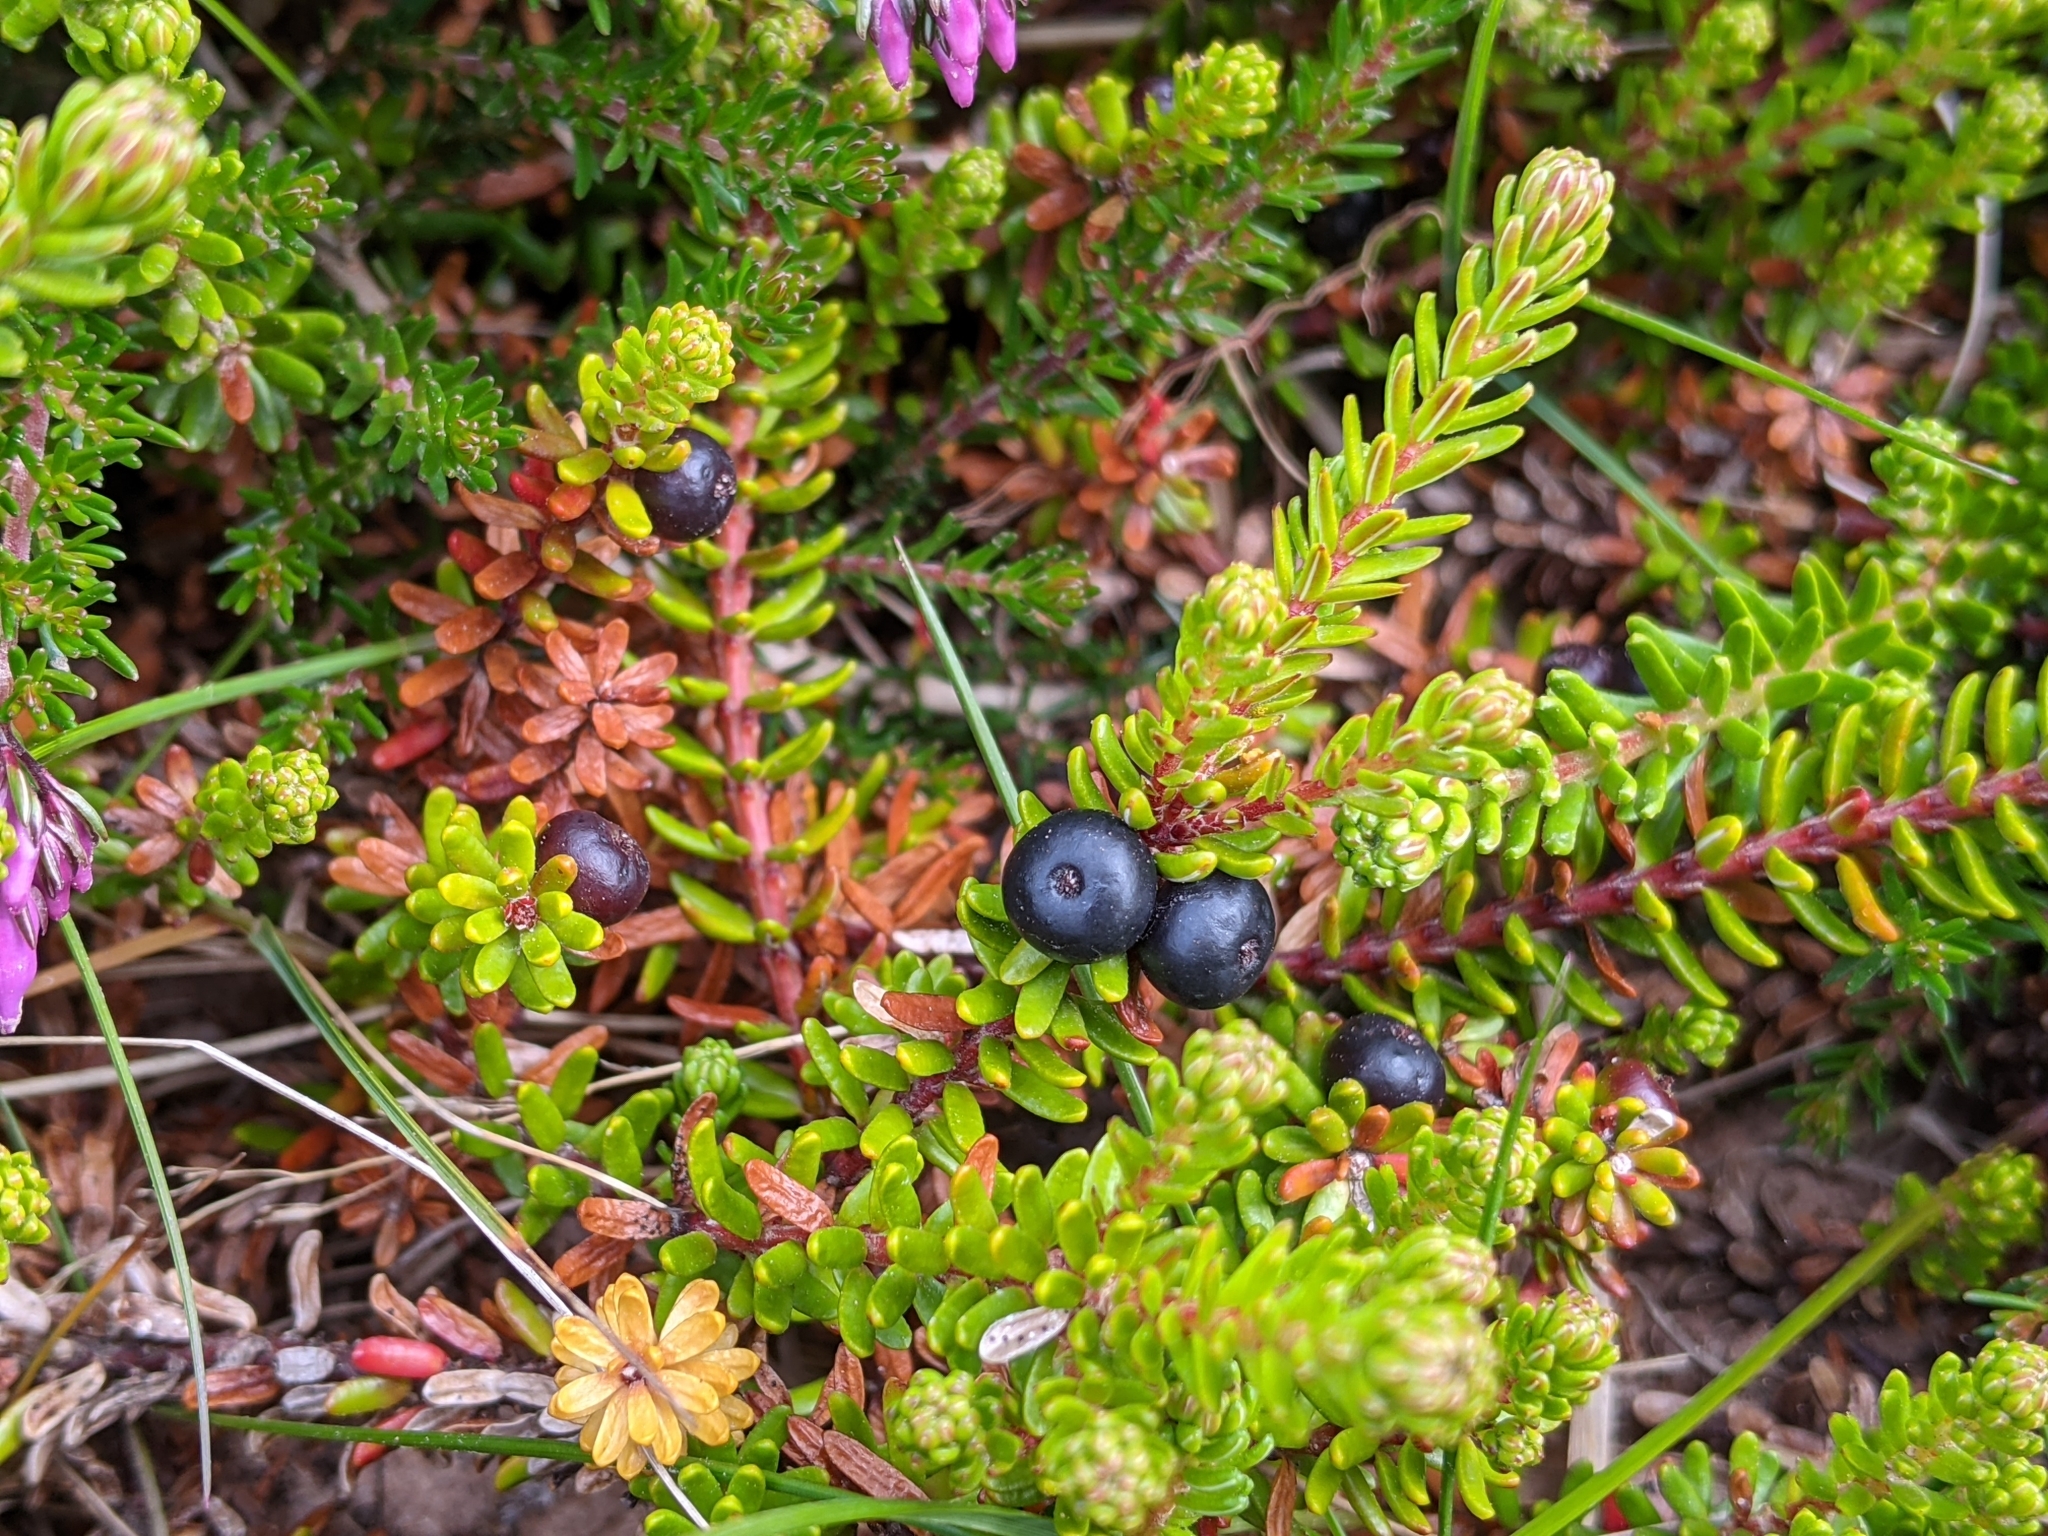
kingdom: Plantae
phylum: Tracheophyta
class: Magnoliopsida
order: Ericales
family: Ericaceae
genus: Empetrum
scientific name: Empetrum nigrum
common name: Black crowberry
